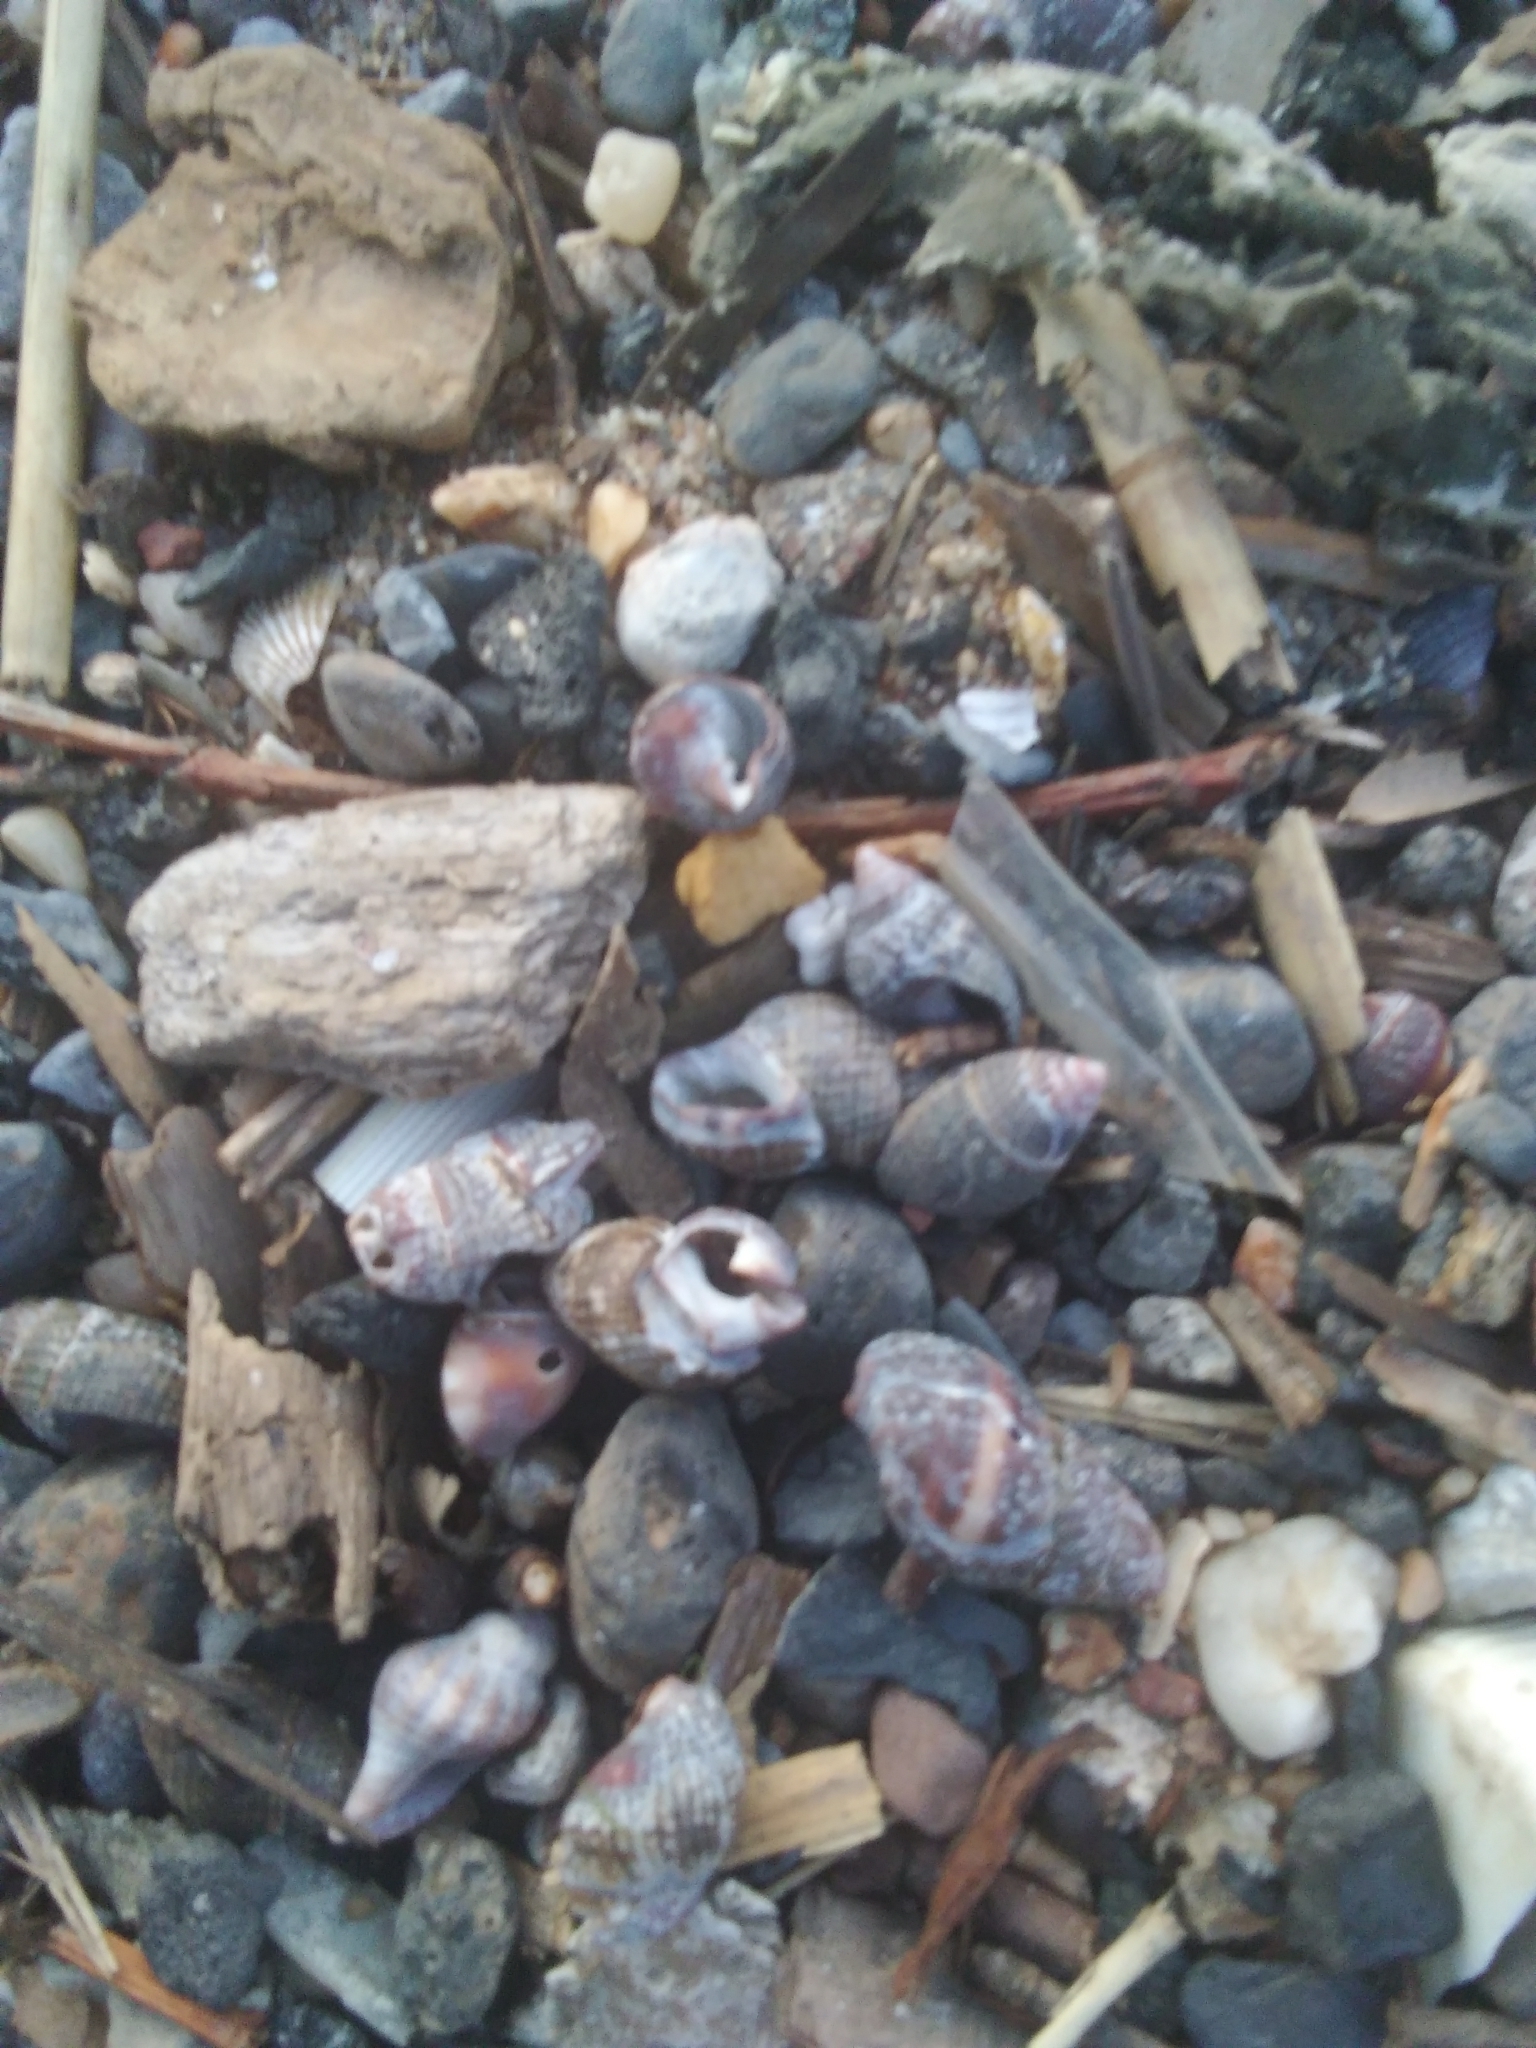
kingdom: Animalia
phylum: Mollusca
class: Gastropoda
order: Neogastropoda
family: Nassariidae
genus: Ilyanassa
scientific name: Ilyanassa obsoleta
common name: Eastern mudsnail
